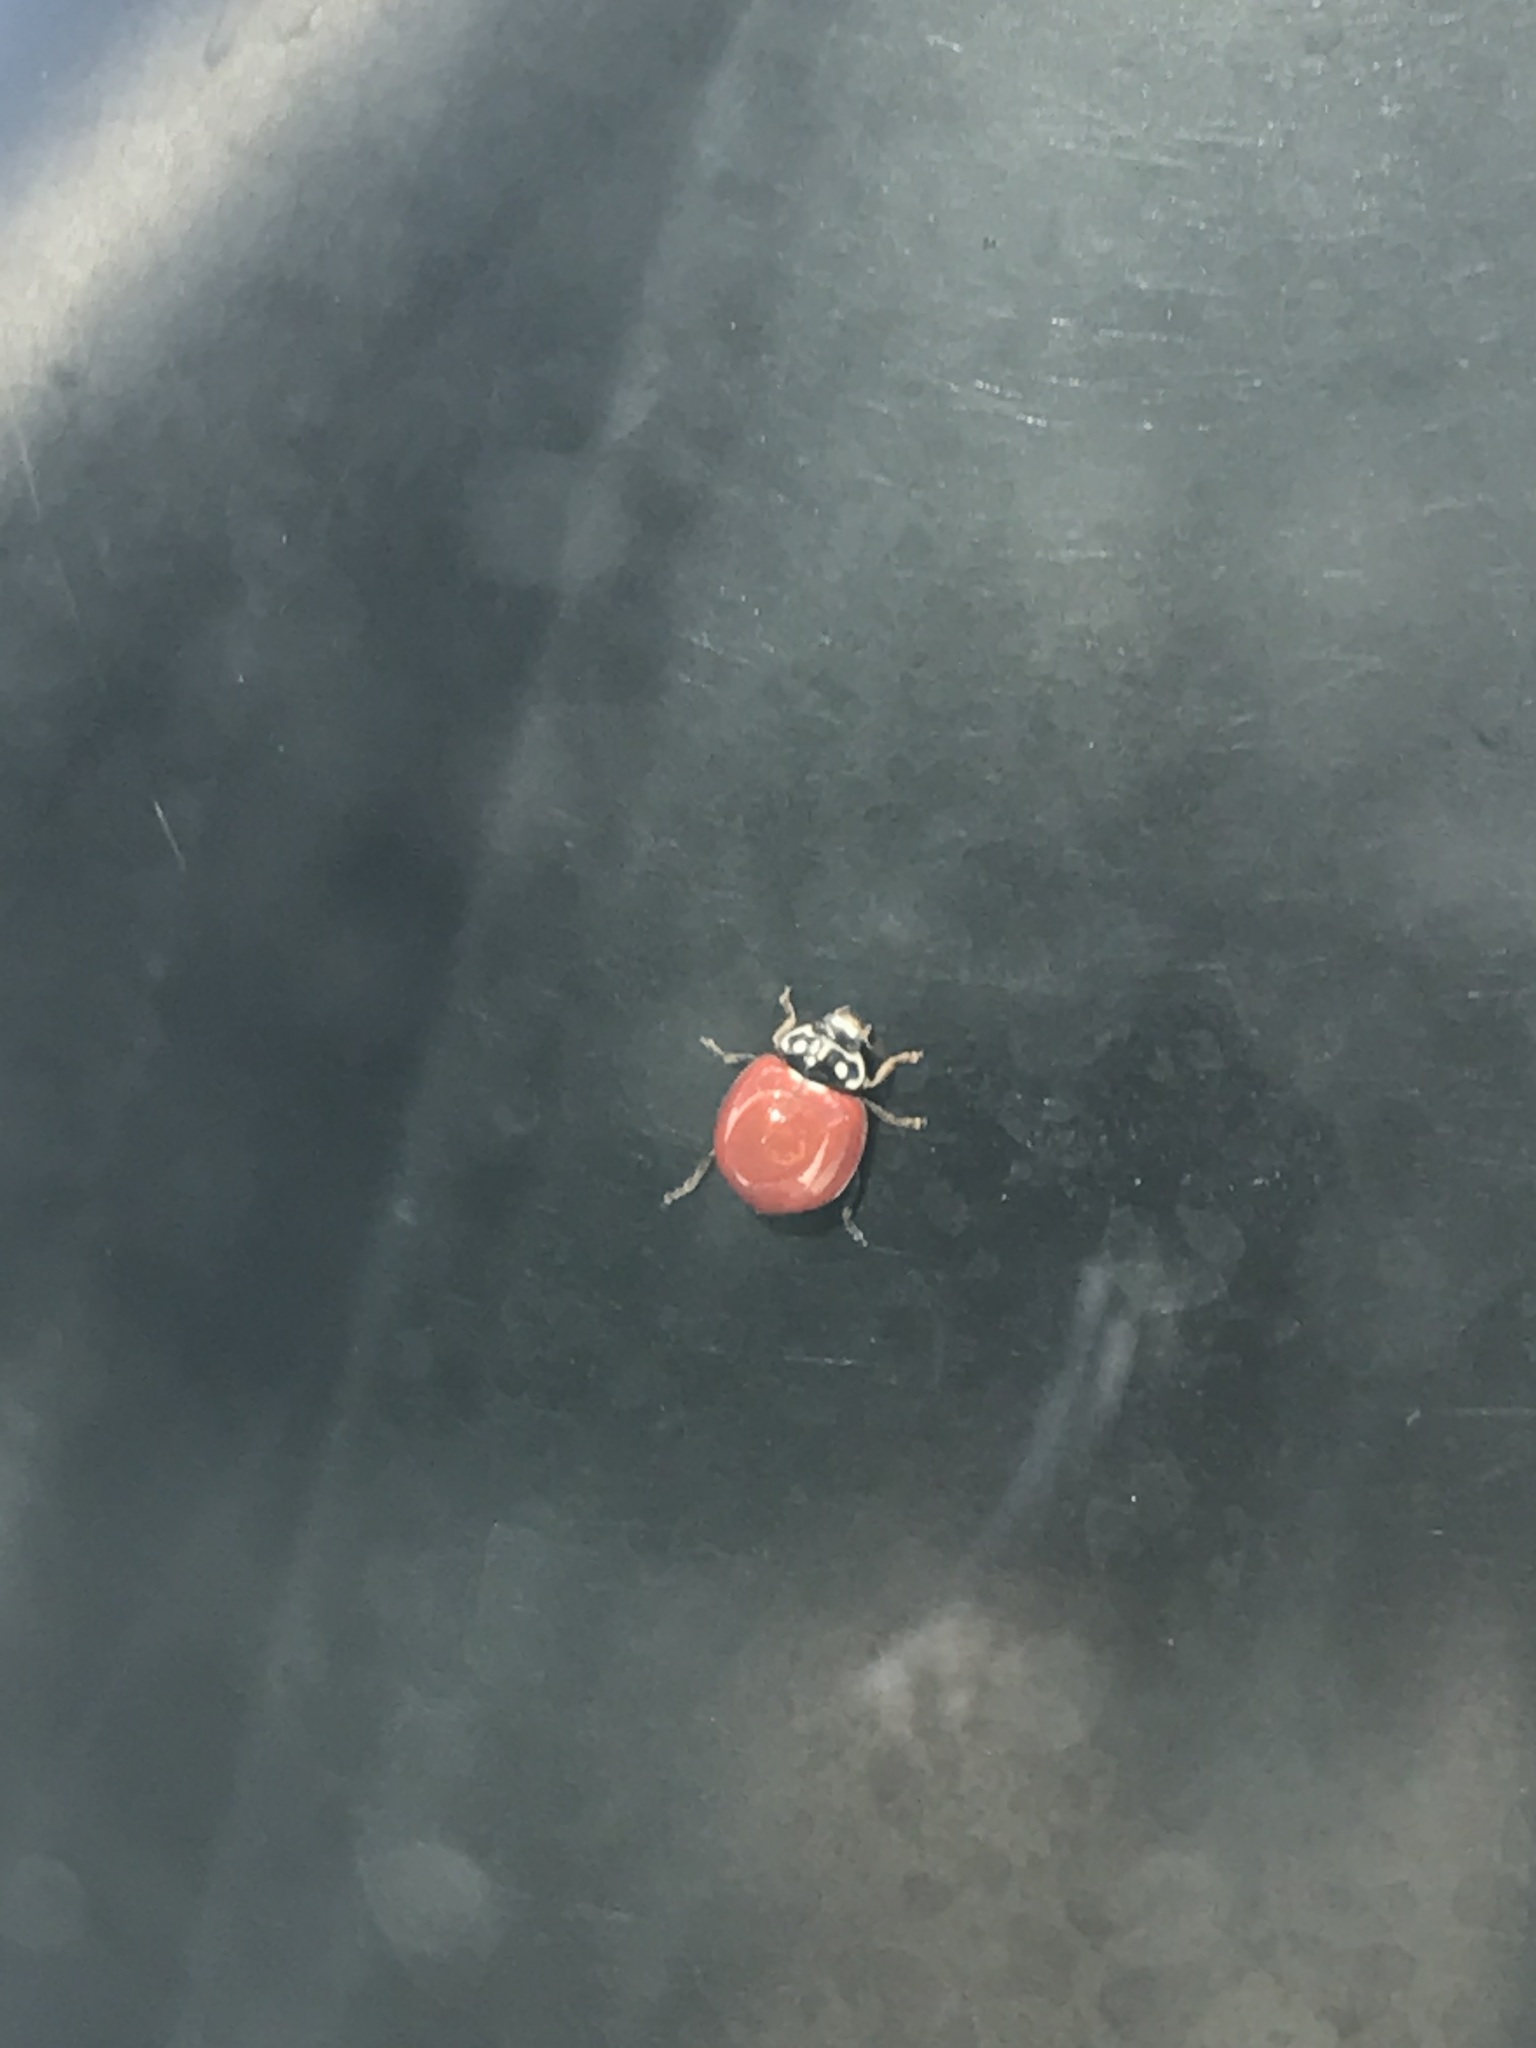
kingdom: Animalia
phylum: Arthropoda
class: Insecta
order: Coleoptera
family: Coccinellidae
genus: Cycloneda
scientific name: Cycloneda sanguinea
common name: Ladybird beetle
